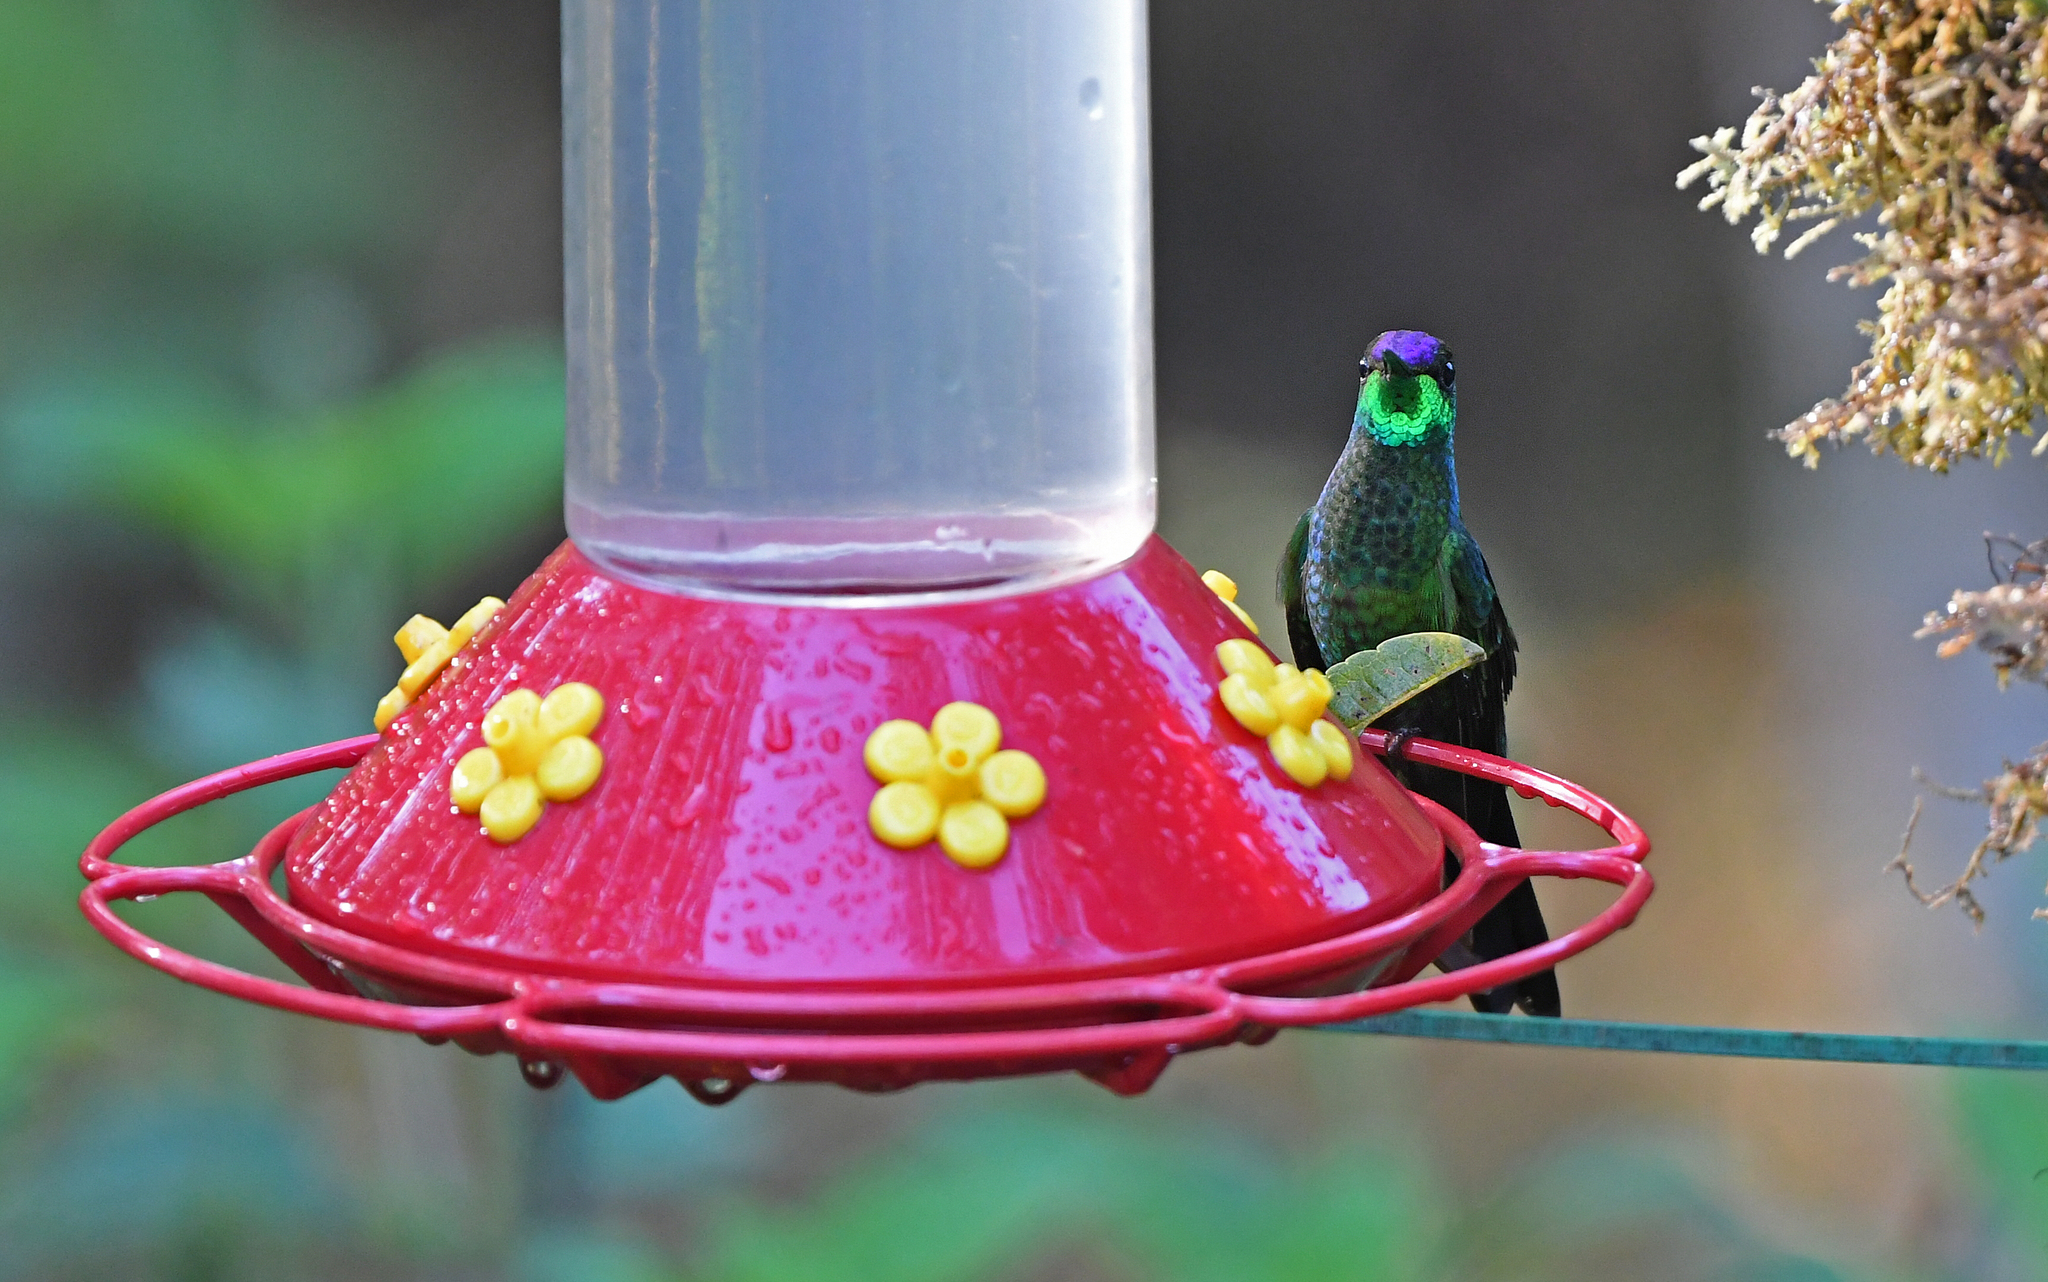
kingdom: Animalia
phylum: Chordata
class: Aves
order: Apodiformes
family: Trochilidae
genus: Heliodoxa
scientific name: Heliodoxa leadbeateri
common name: Violet-fronted brilliant
